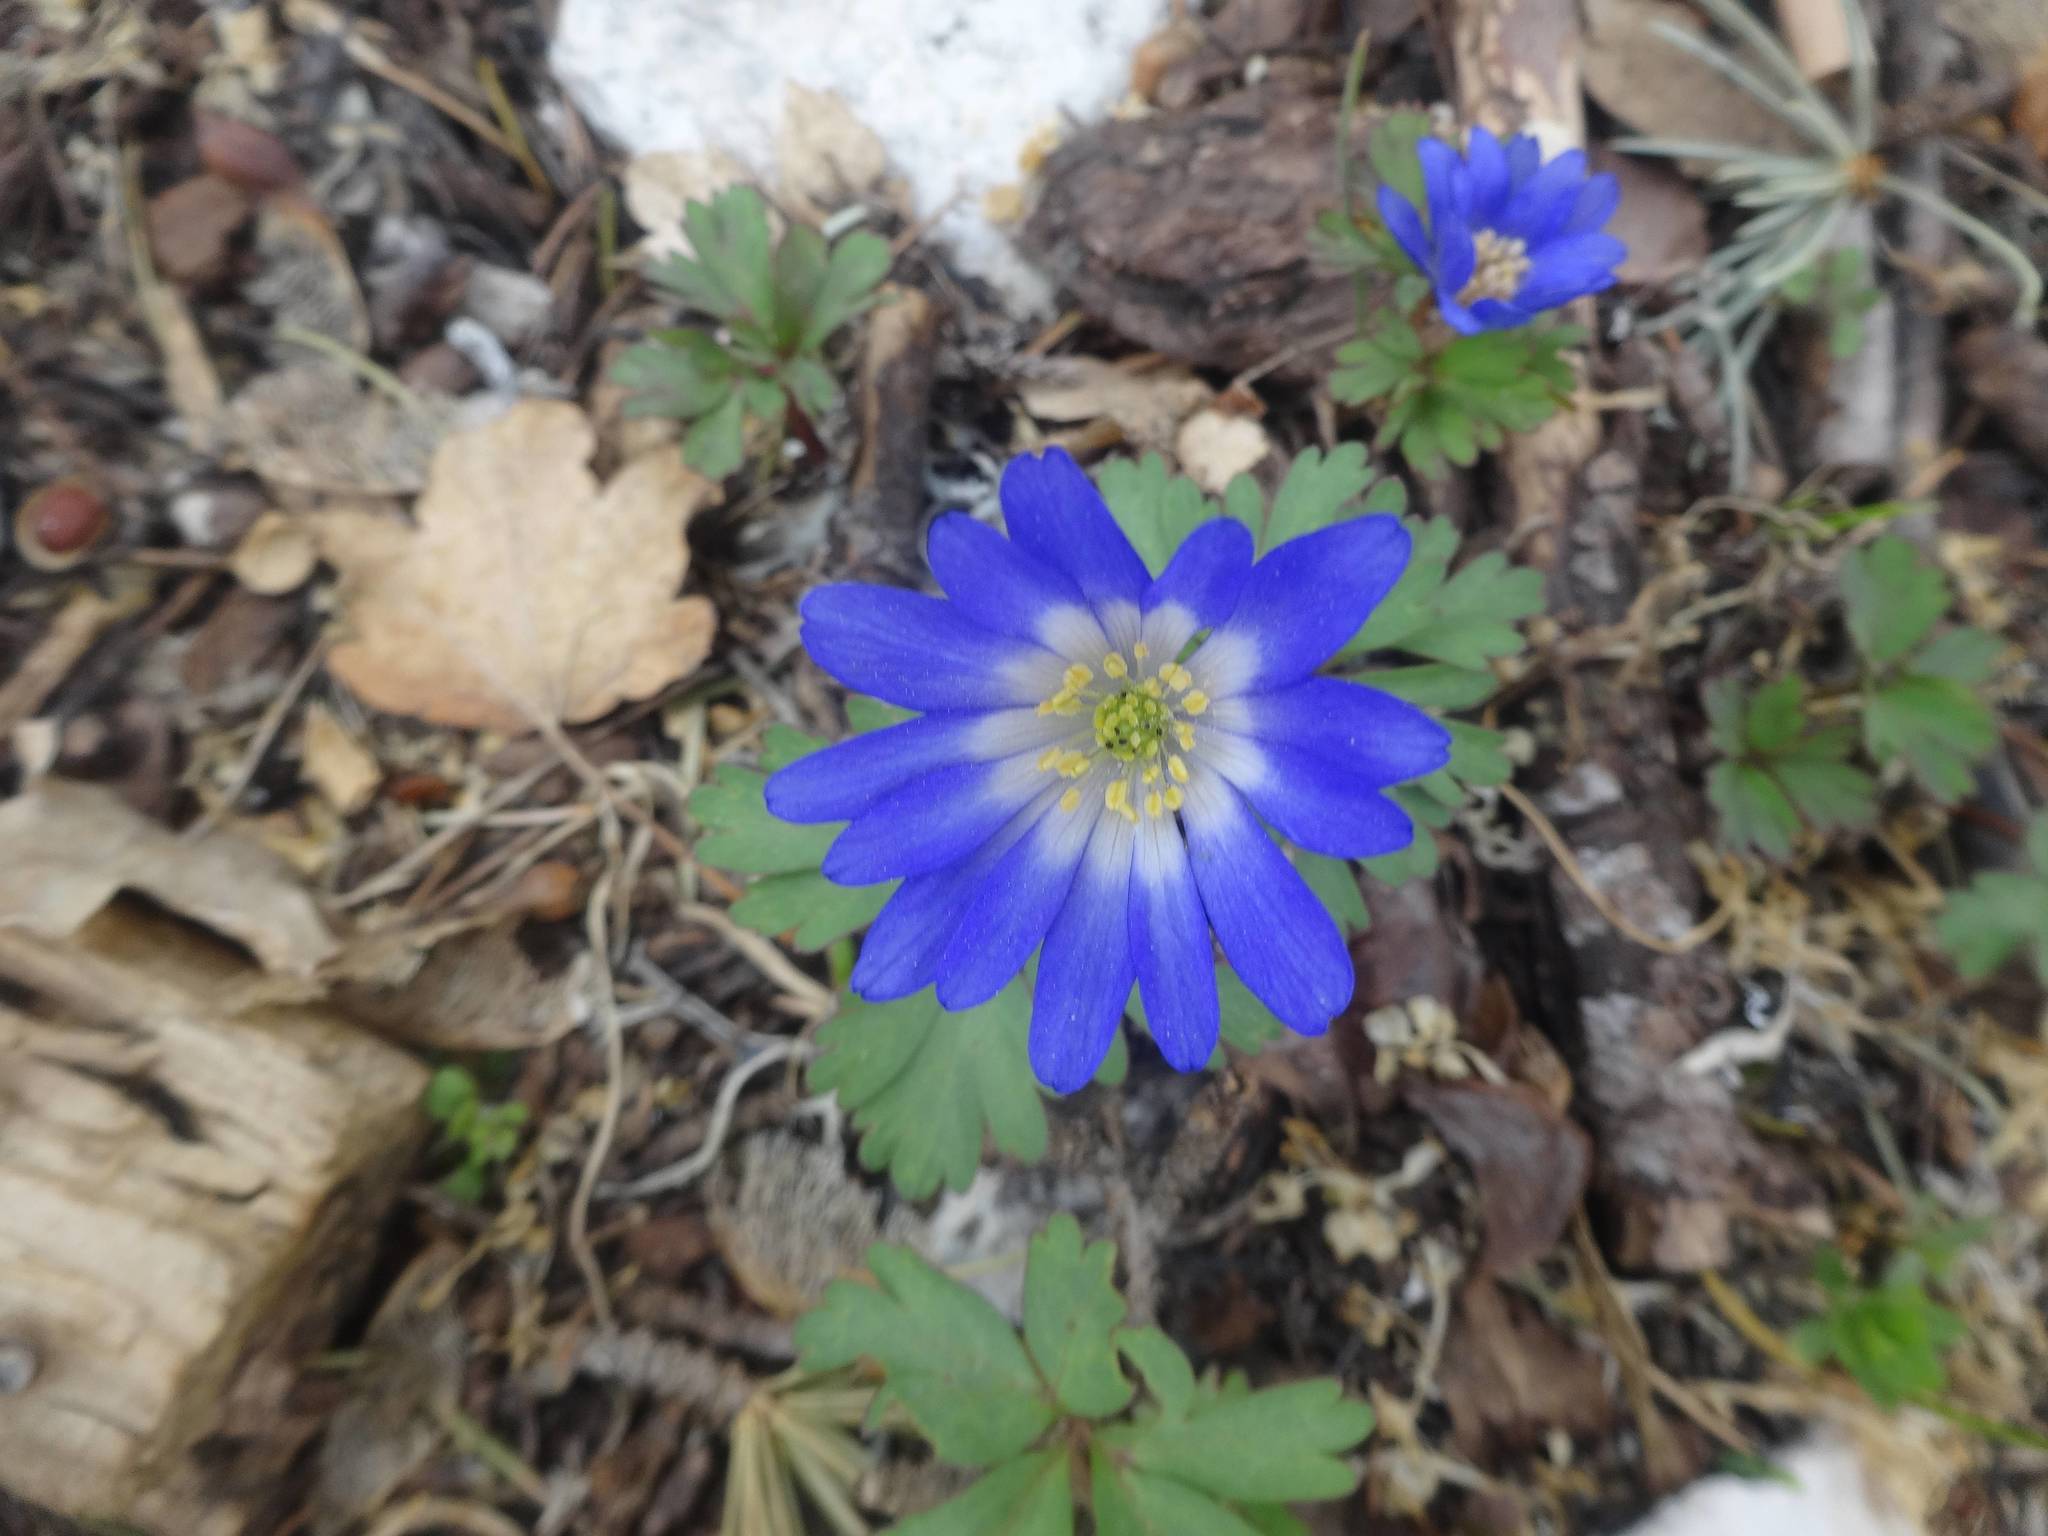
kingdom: Plantae
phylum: Tracheophyta
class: Magnoliopsida
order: Ranunculales
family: Ranunculaceae
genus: Anemone
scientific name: Anemone blanda
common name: Balkan anemone
